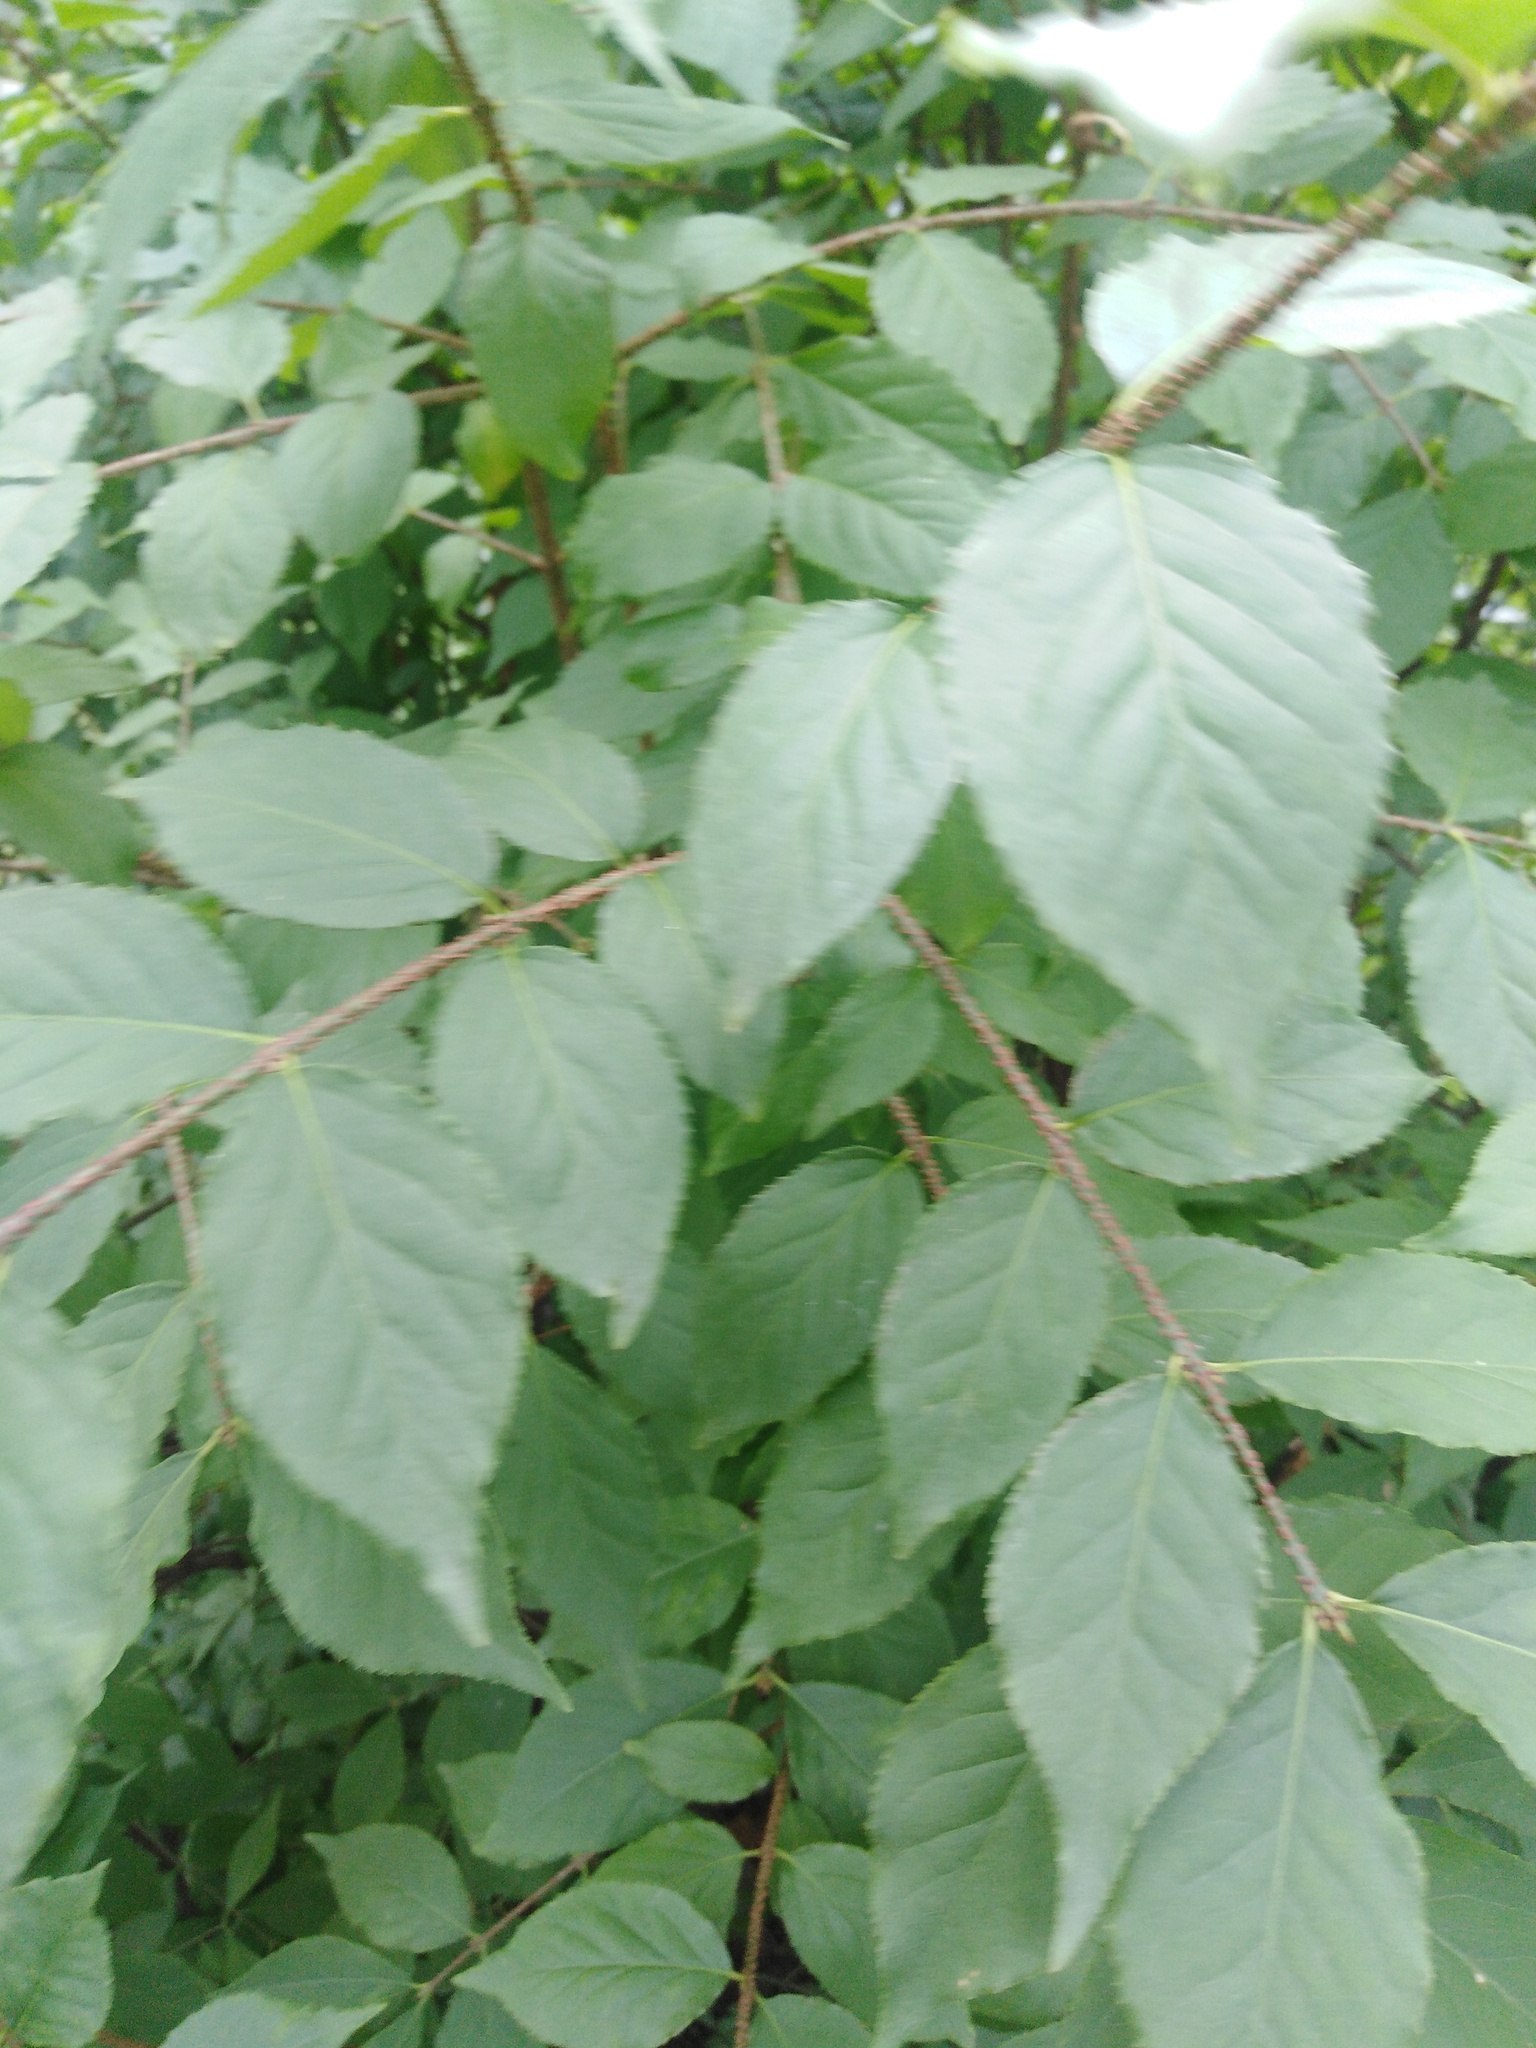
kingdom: Plantae
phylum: Tracheophyta
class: Magnoliopsida
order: Celastrales
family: Celastraceae
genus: Euonymus
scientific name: Euonymus verrucosus
